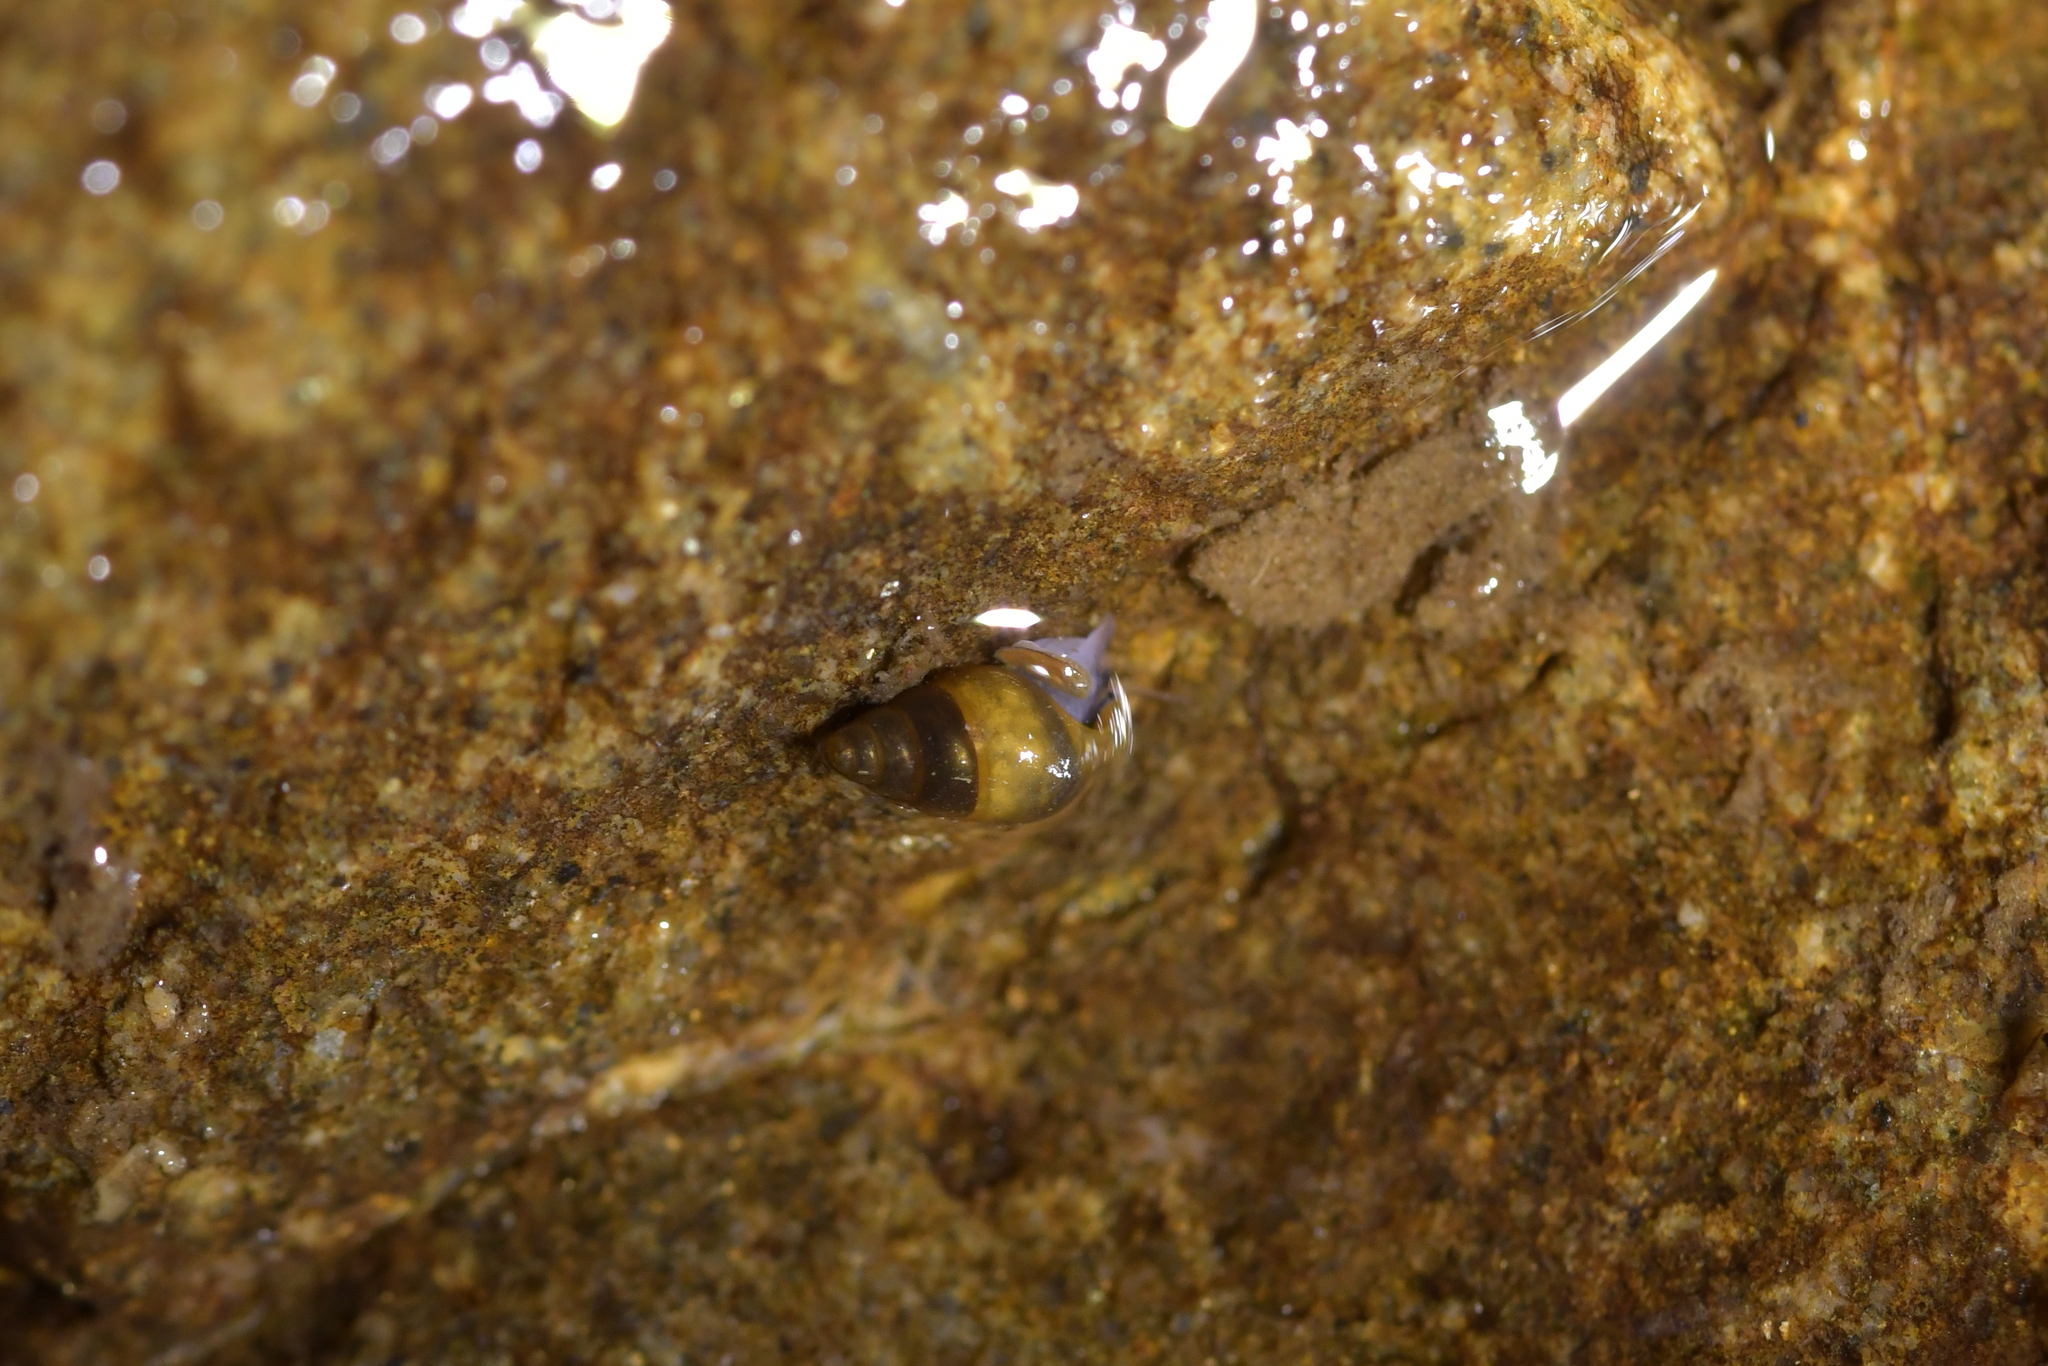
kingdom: Animalia
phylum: Mollusca
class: Gastropoda
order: Littorinimorpha
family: Tateidae
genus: Potamopyrgus
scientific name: Potamopyrgus antipodarum
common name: Jenkins' spire snail
